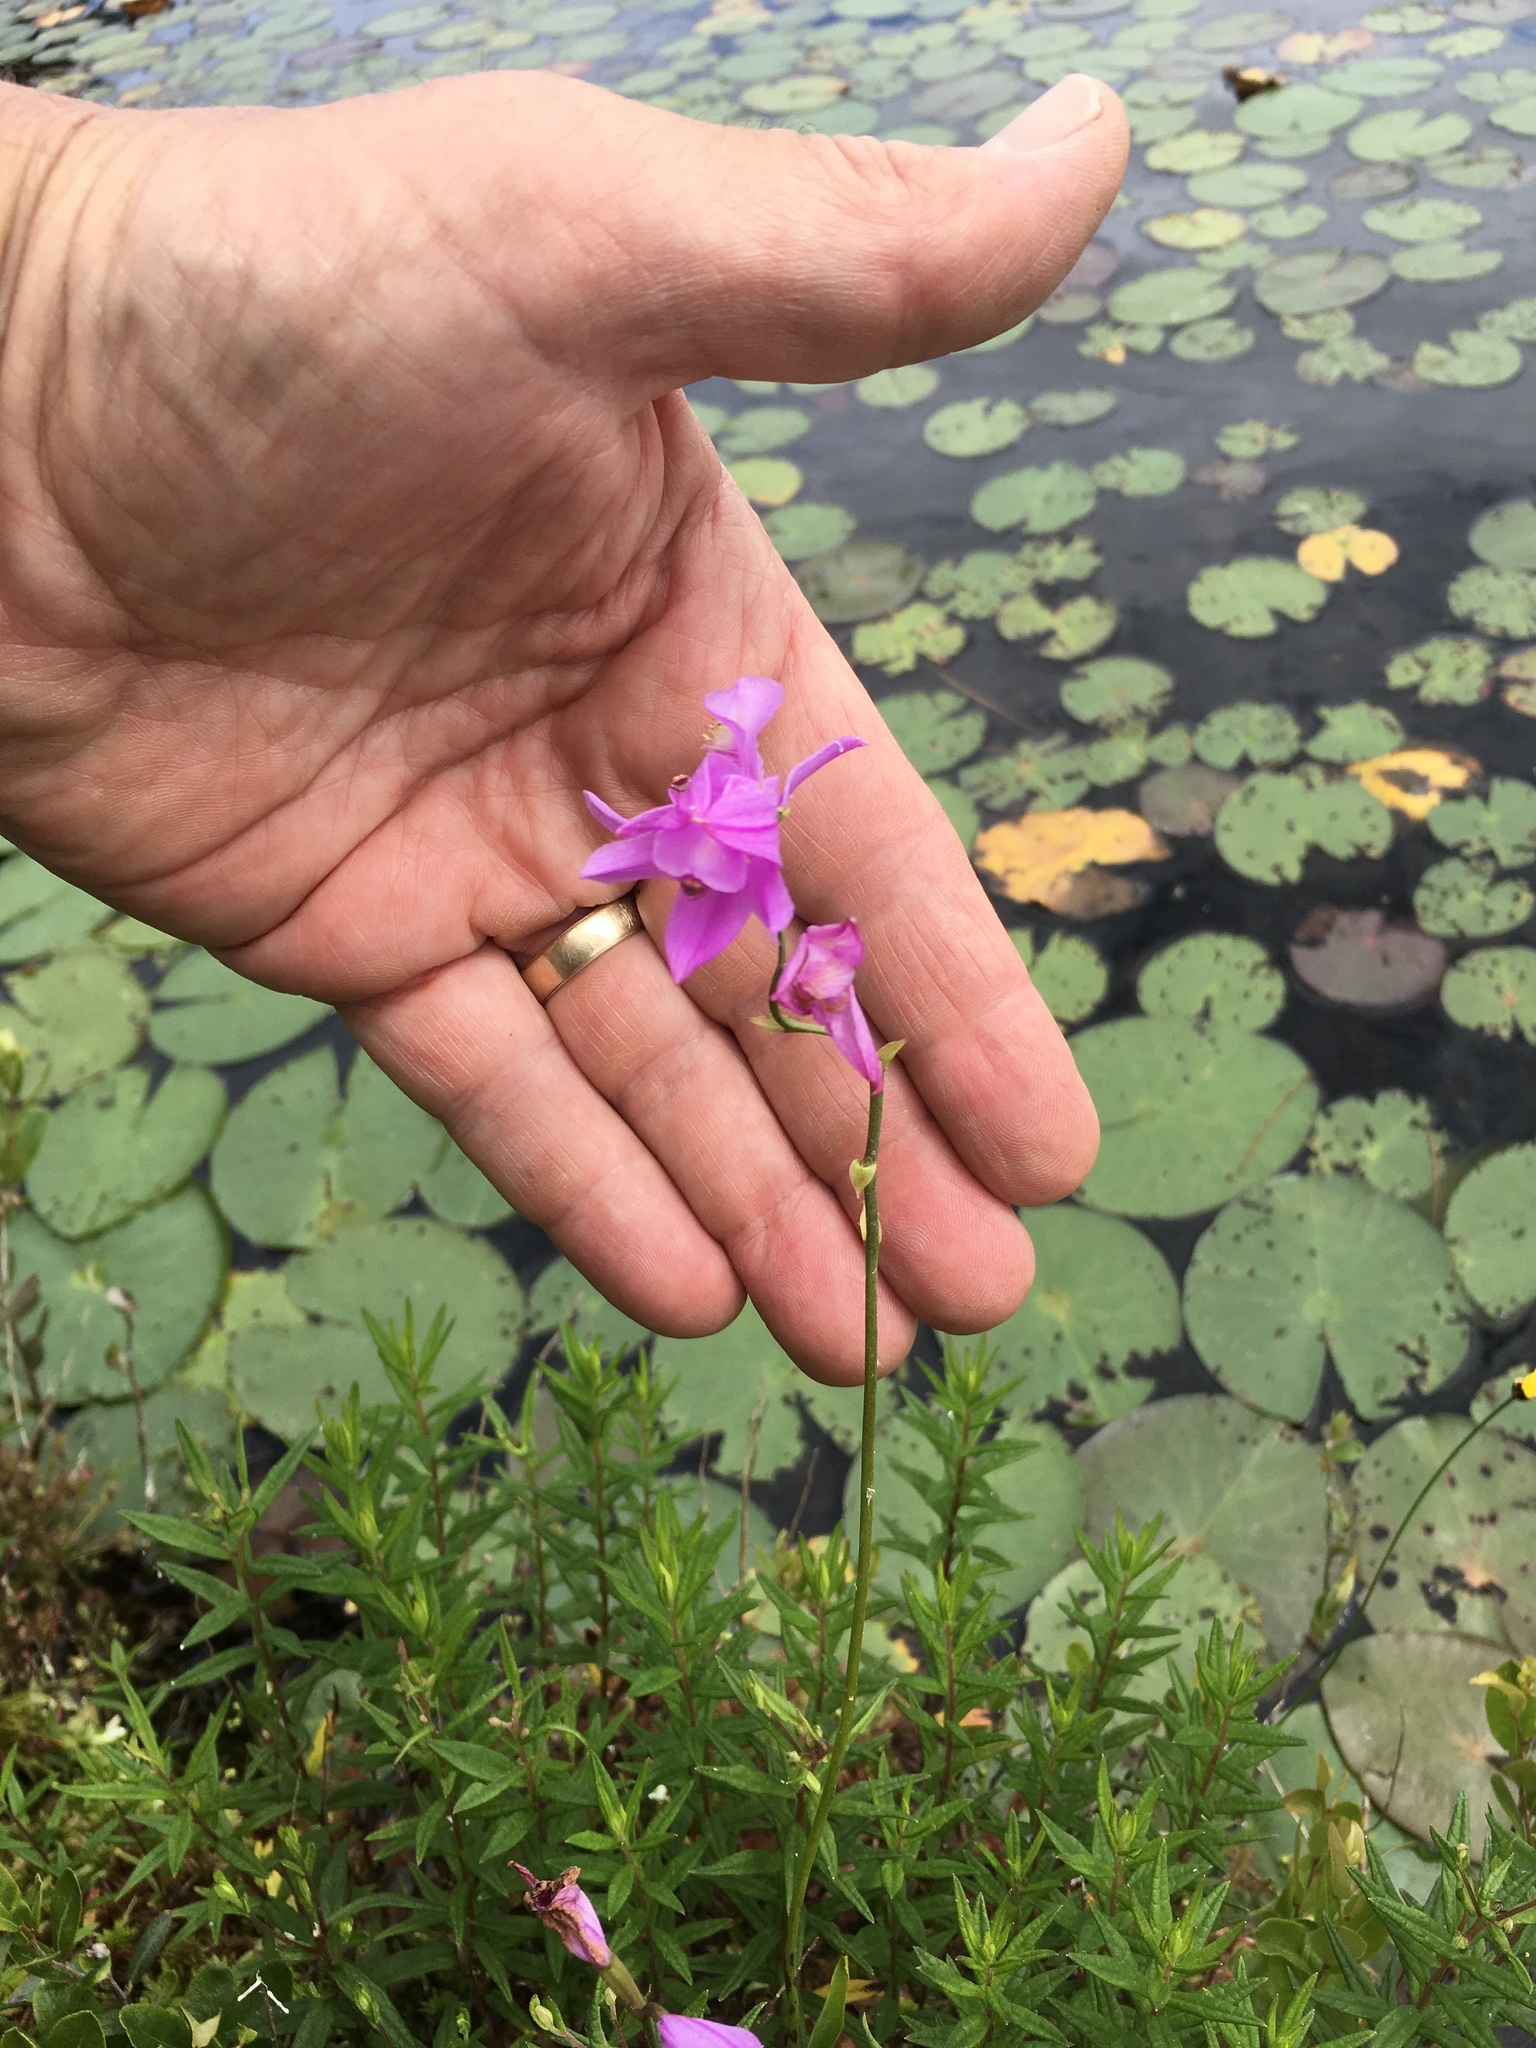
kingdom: Plantae
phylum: Tracheophyta
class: Liliopsida
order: Asparagales
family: Orchidaceae
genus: Calopogon
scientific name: Calopogon tuberosus
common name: Grass-pink
